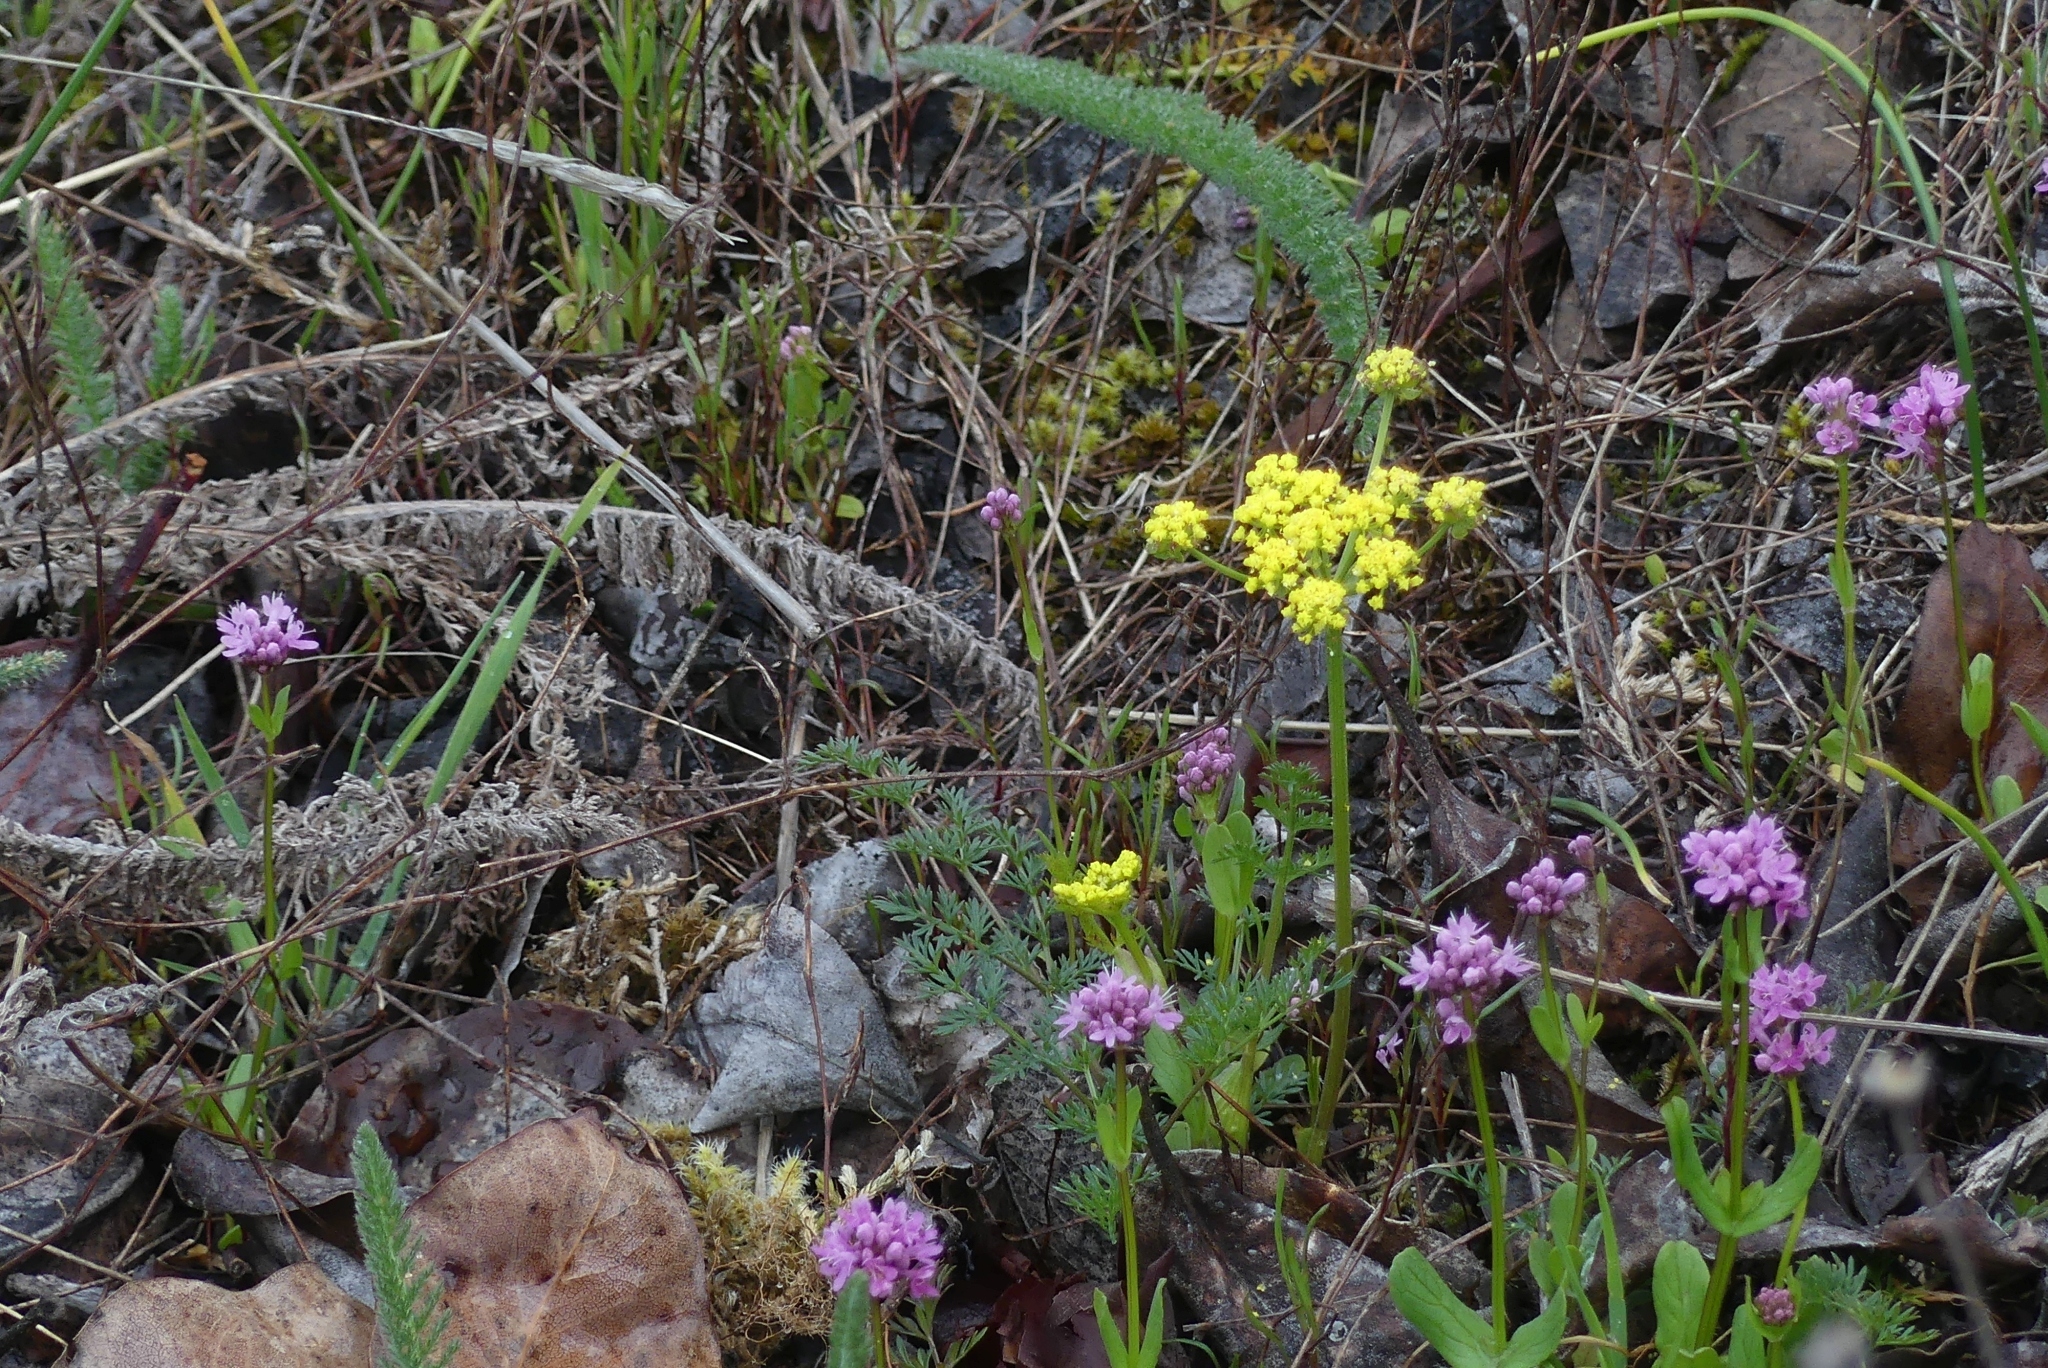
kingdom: Plantae
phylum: Tracheophyta
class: Magnoliopsida
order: Apiales
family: Apiaceae
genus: Lomatium
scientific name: Lomatium utriculatum
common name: Fine-leaf desert-parsley
